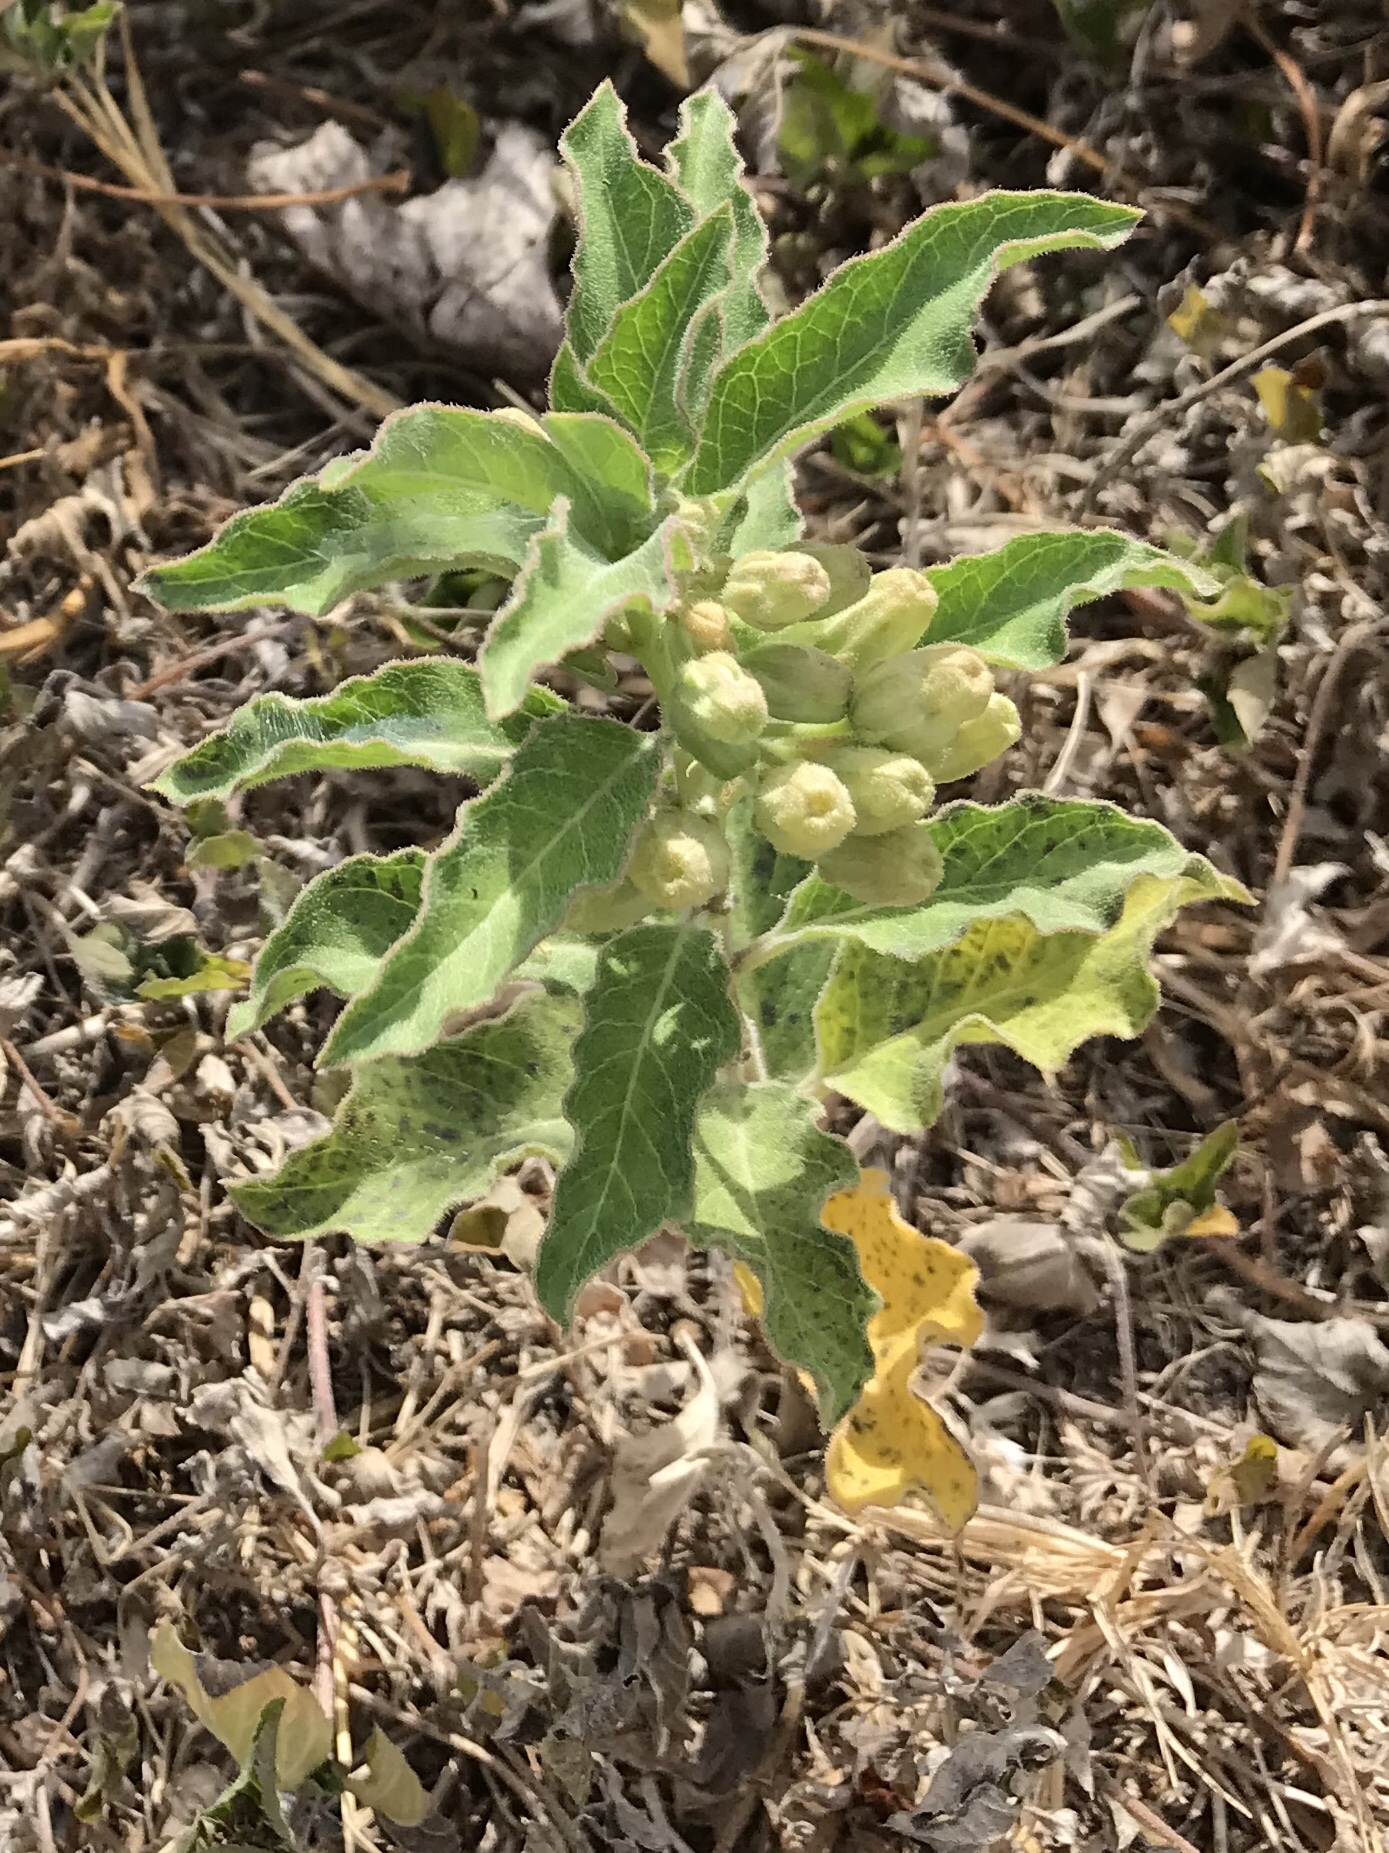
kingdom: Plantae
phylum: Tracheophyta
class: Magnoliopsida
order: Gentianales
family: Apocynaceae
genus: Asclepias
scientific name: Asclepias oenotheroides
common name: Zizotes milkweed
